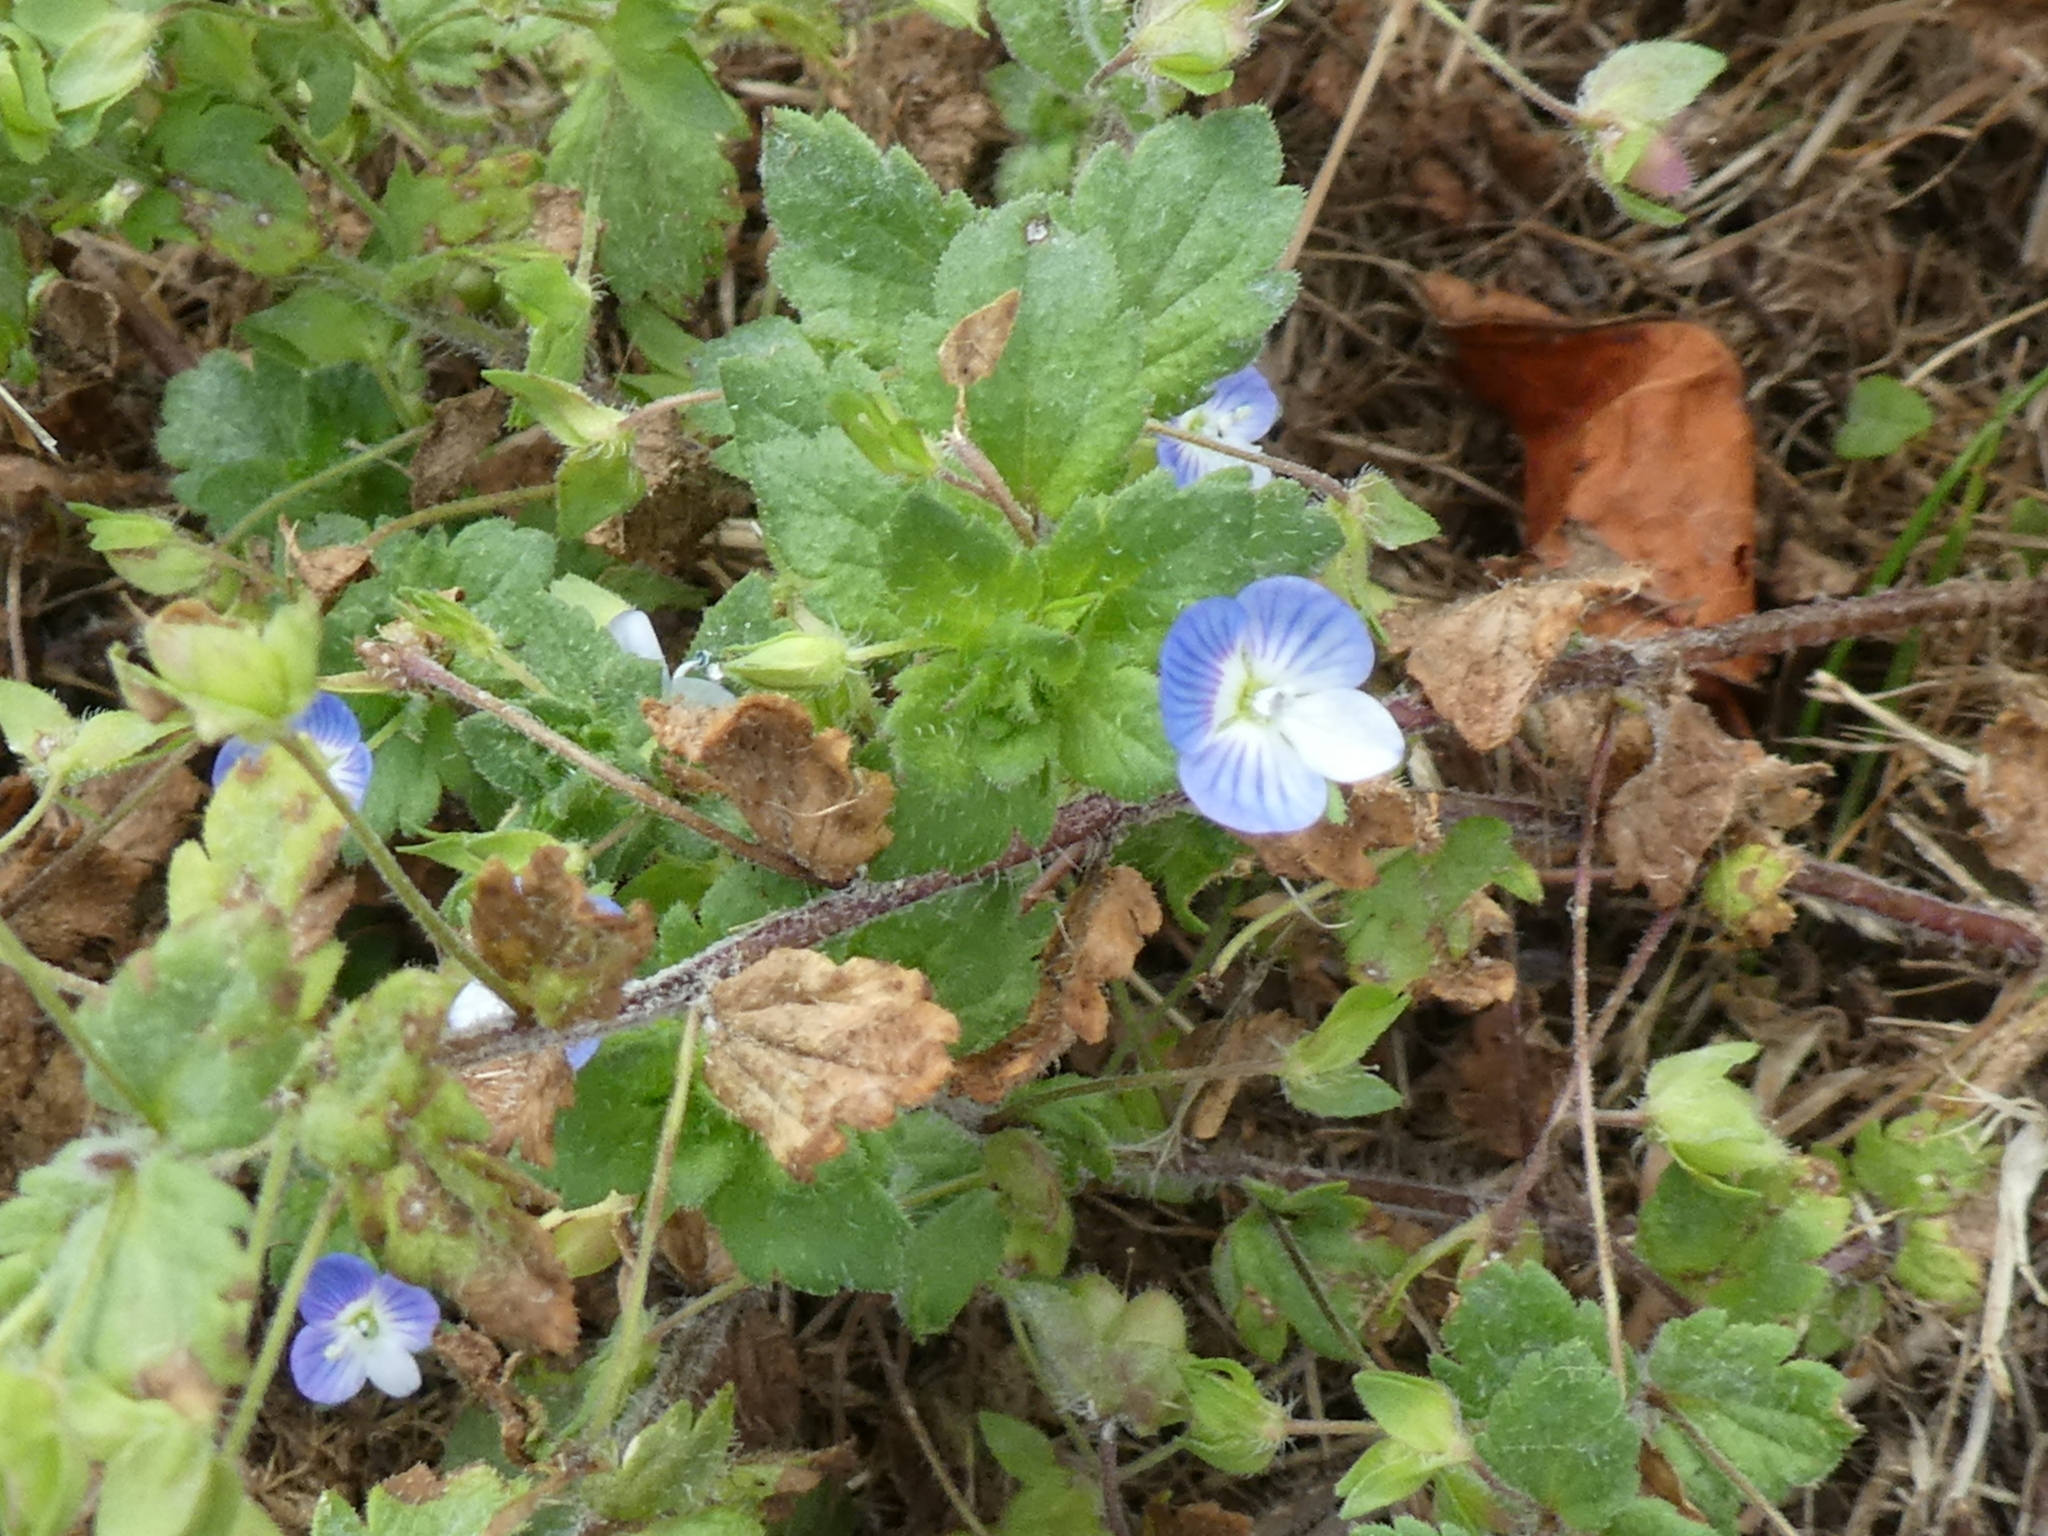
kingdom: Plantae
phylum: Tracheophyta
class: Magnoliopsida
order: Lamiales
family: Plantaginaceae
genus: Veronica
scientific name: Veronica persica
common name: Common field-speedwell
